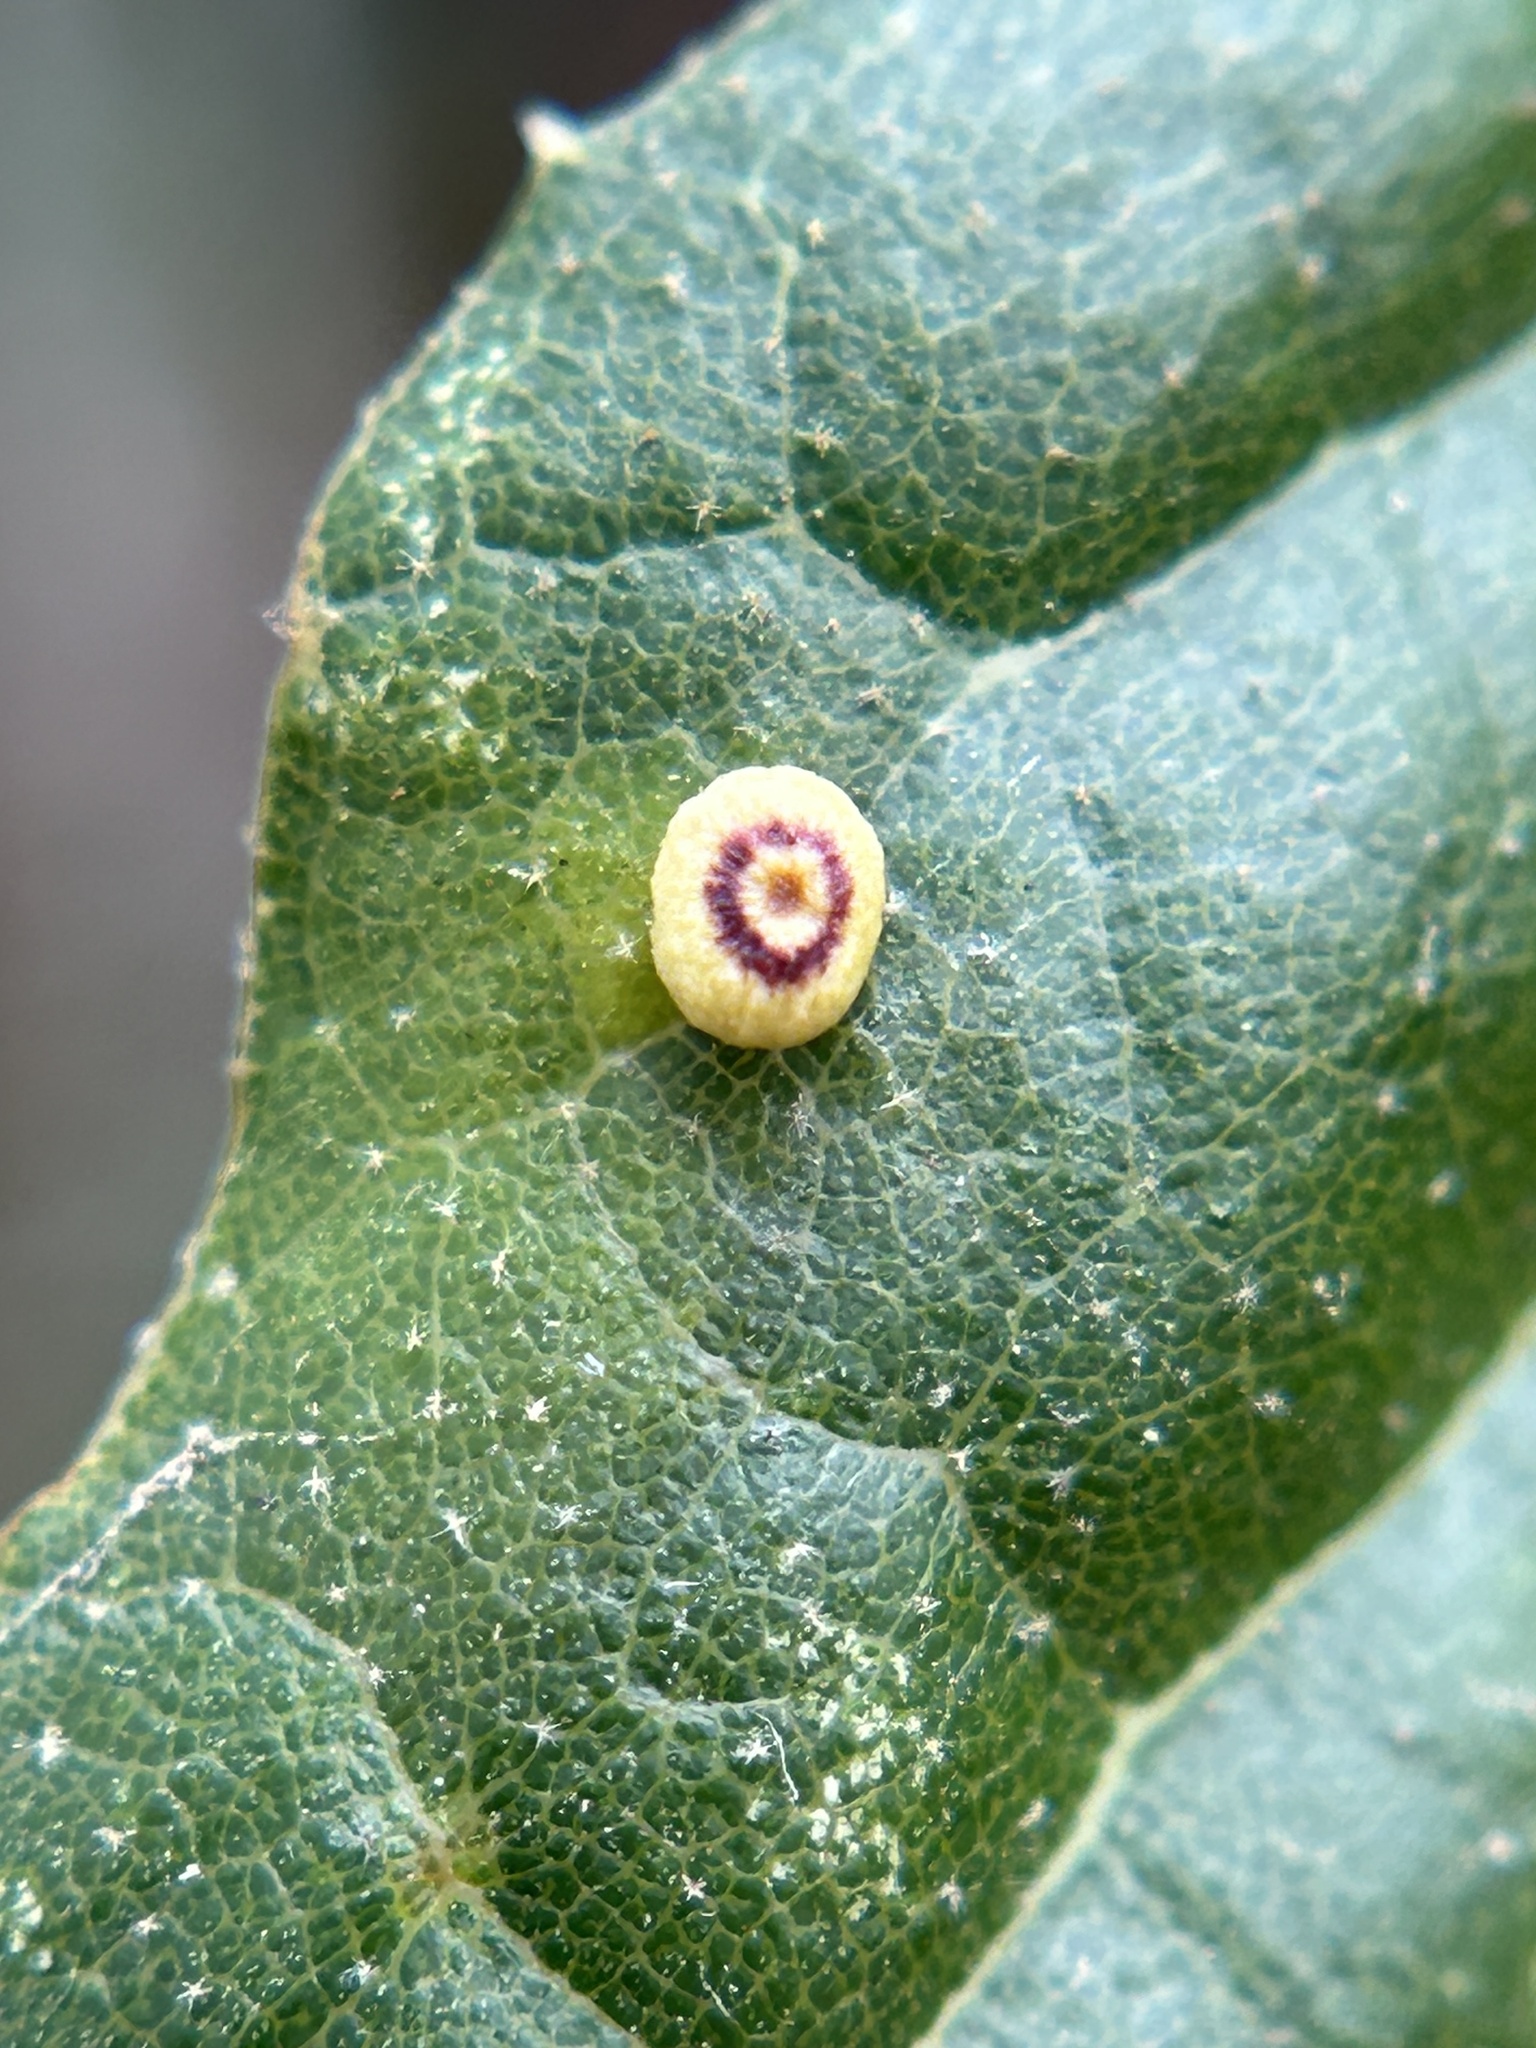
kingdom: Animalia
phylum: Arthropoda
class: Insecta
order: Hymenoptera
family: Cynipidae
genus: Dryocosmus
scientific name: Dryocosmus
